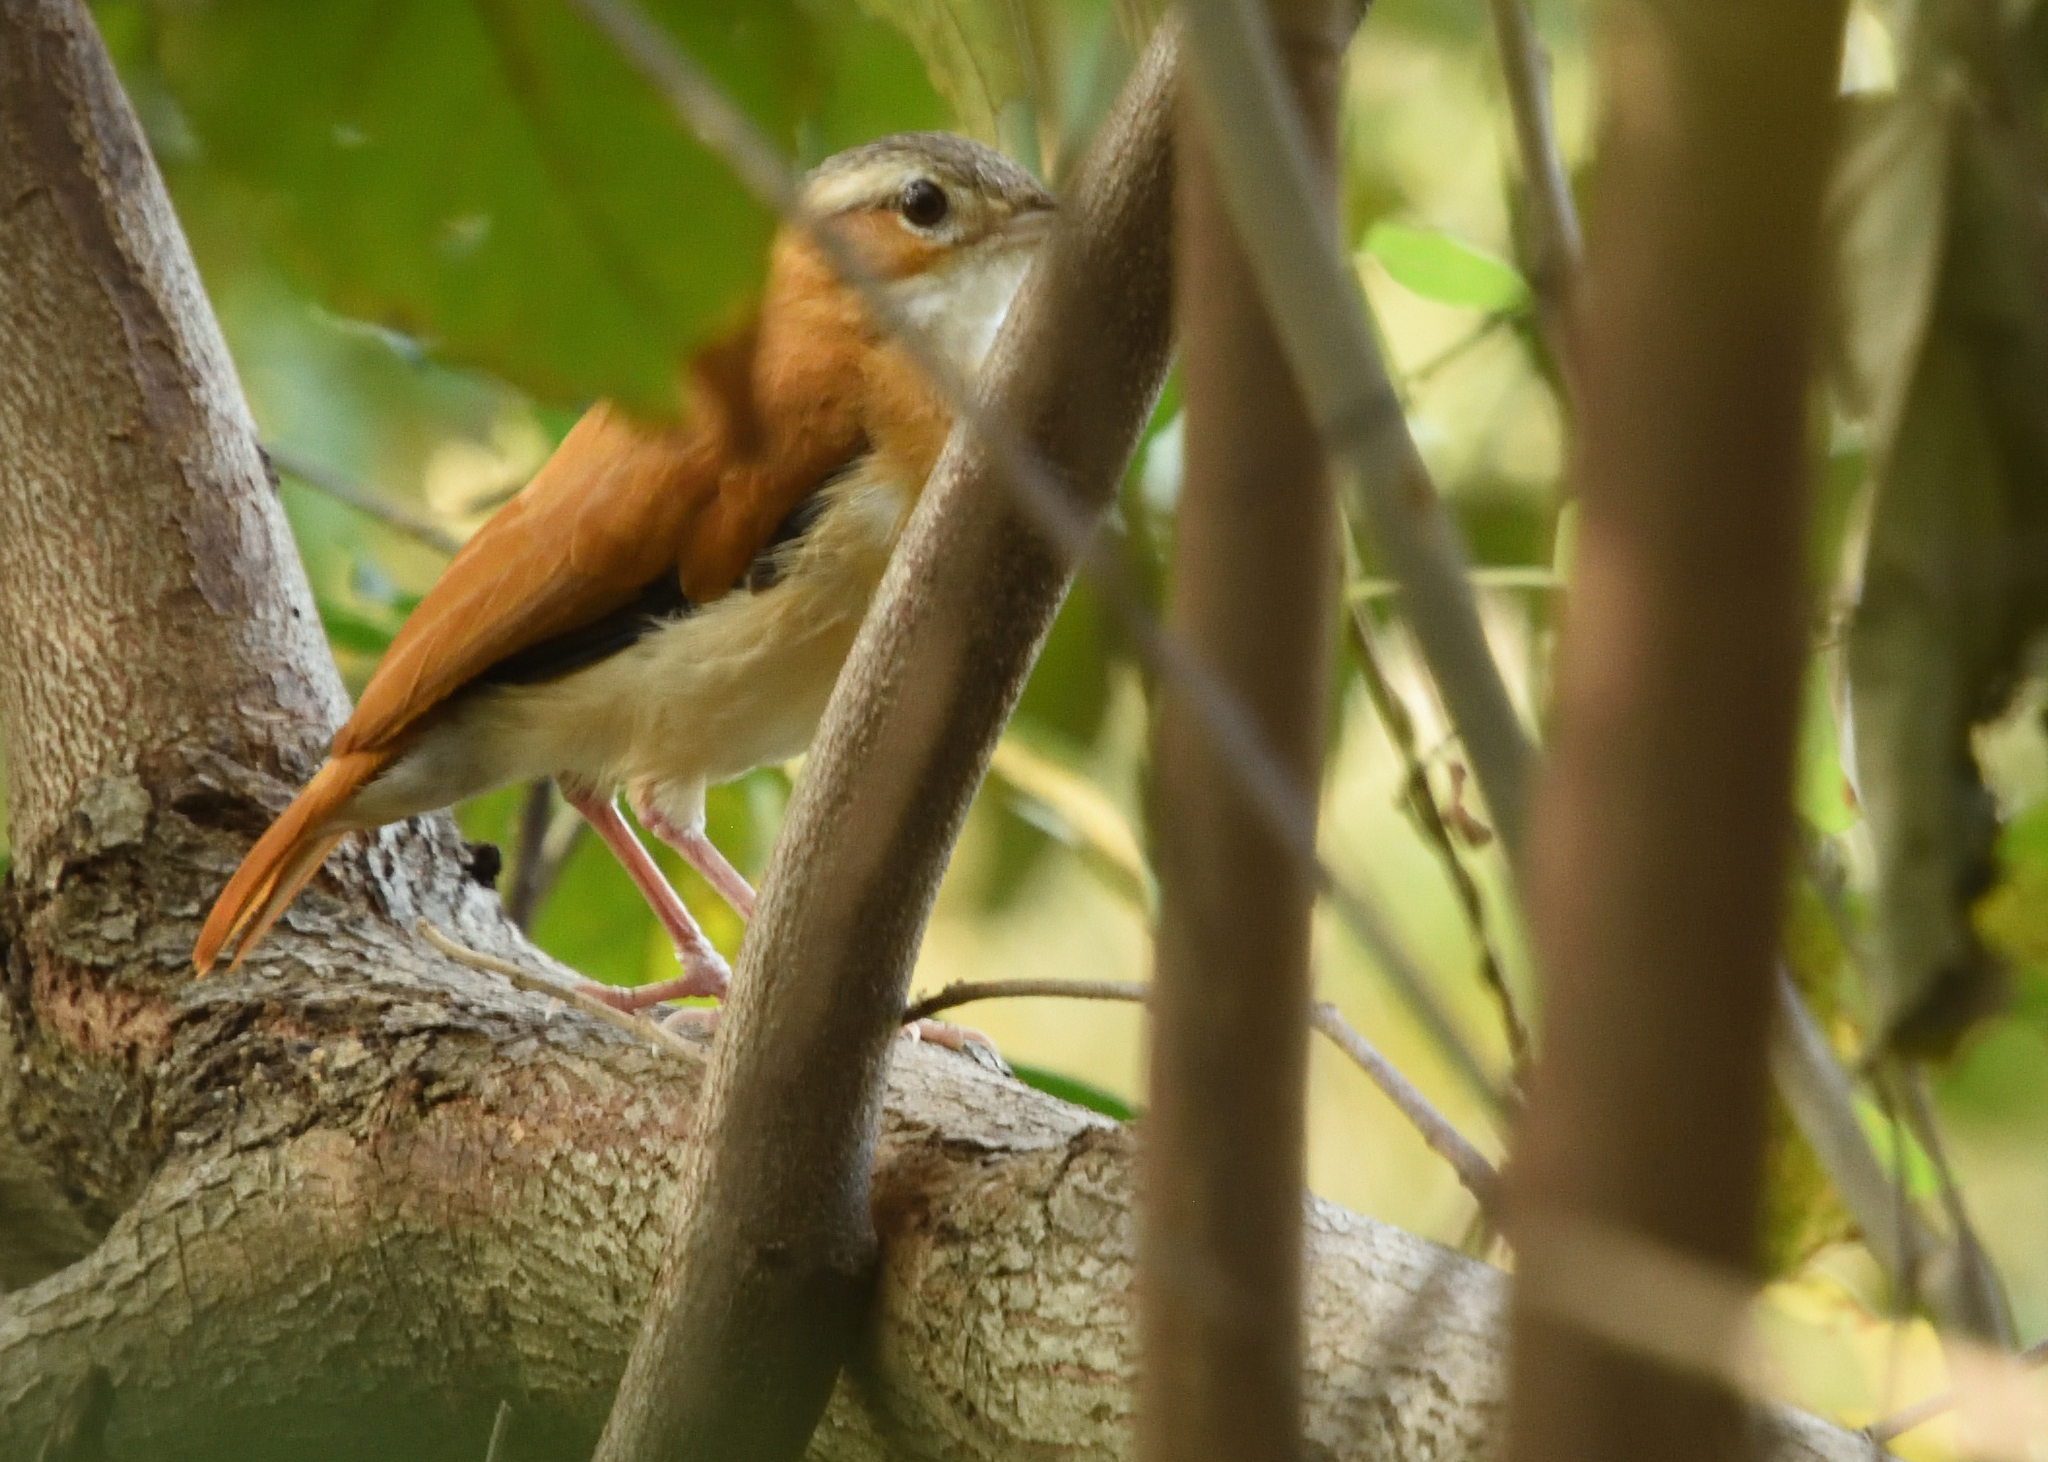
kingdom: Animalia
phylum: Chordata
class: Aves
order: Passeriformes
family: Furnariidae
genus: Furnarius
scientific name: Furnarius longirostris
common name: Caribbean hornero
